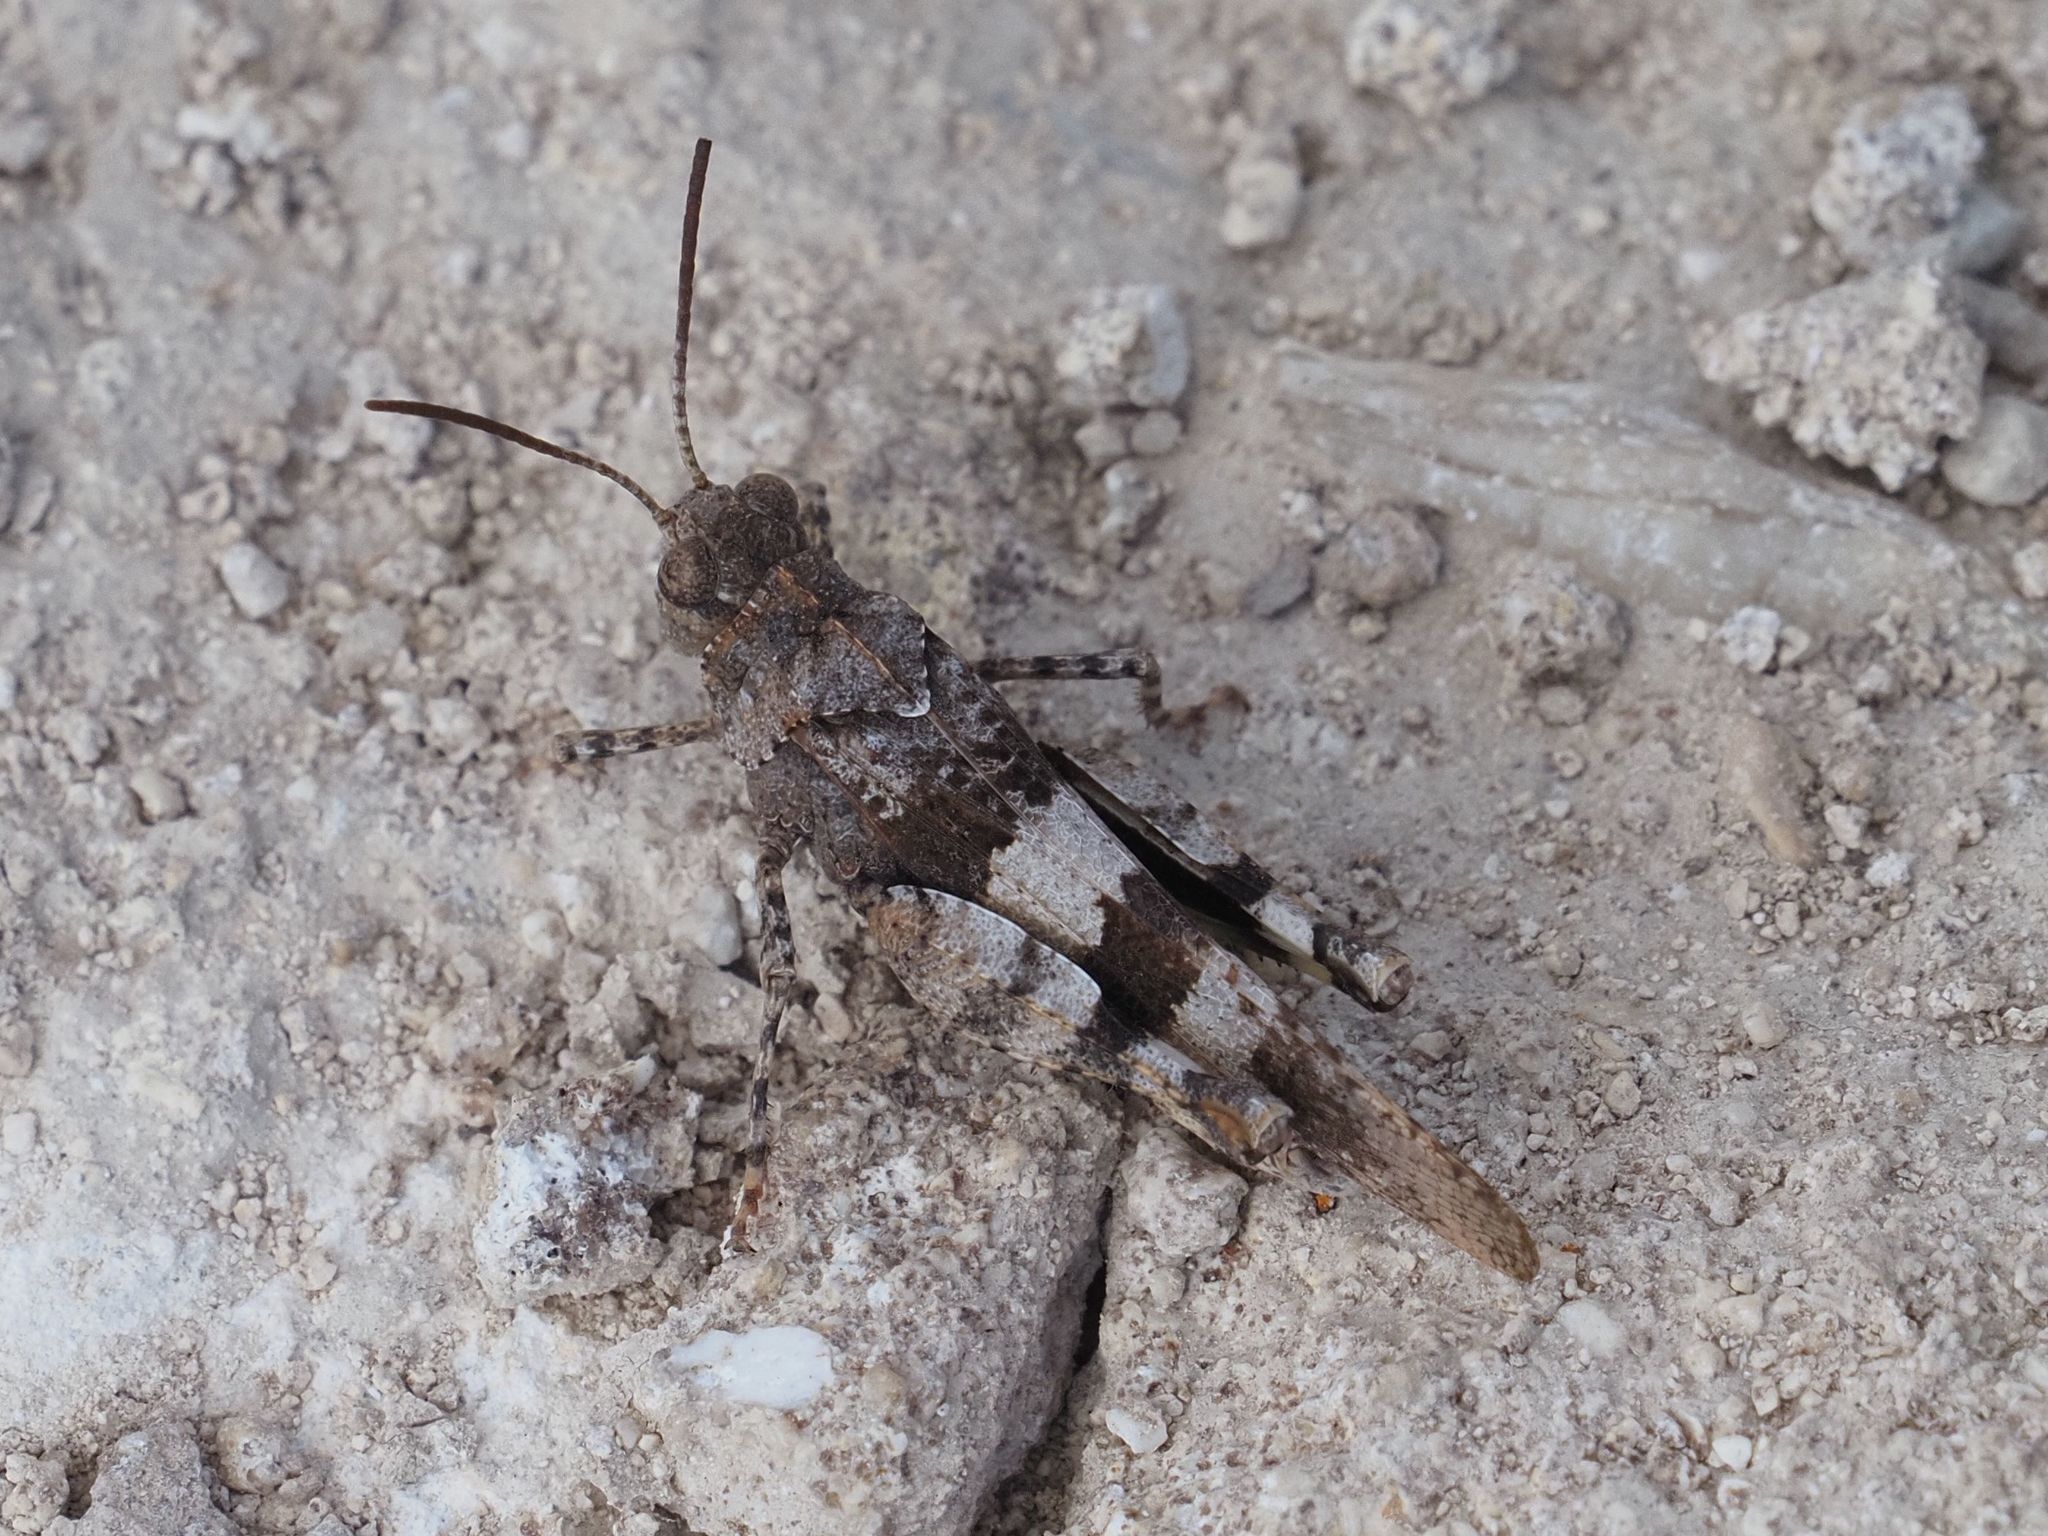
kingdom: Animalia
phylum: Arthropoda
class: Insecta
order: Orthoptera
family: Acrididae
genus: Oedipoda
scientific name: Oedipoda caerulescens
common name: Blue-winged grasshopper
